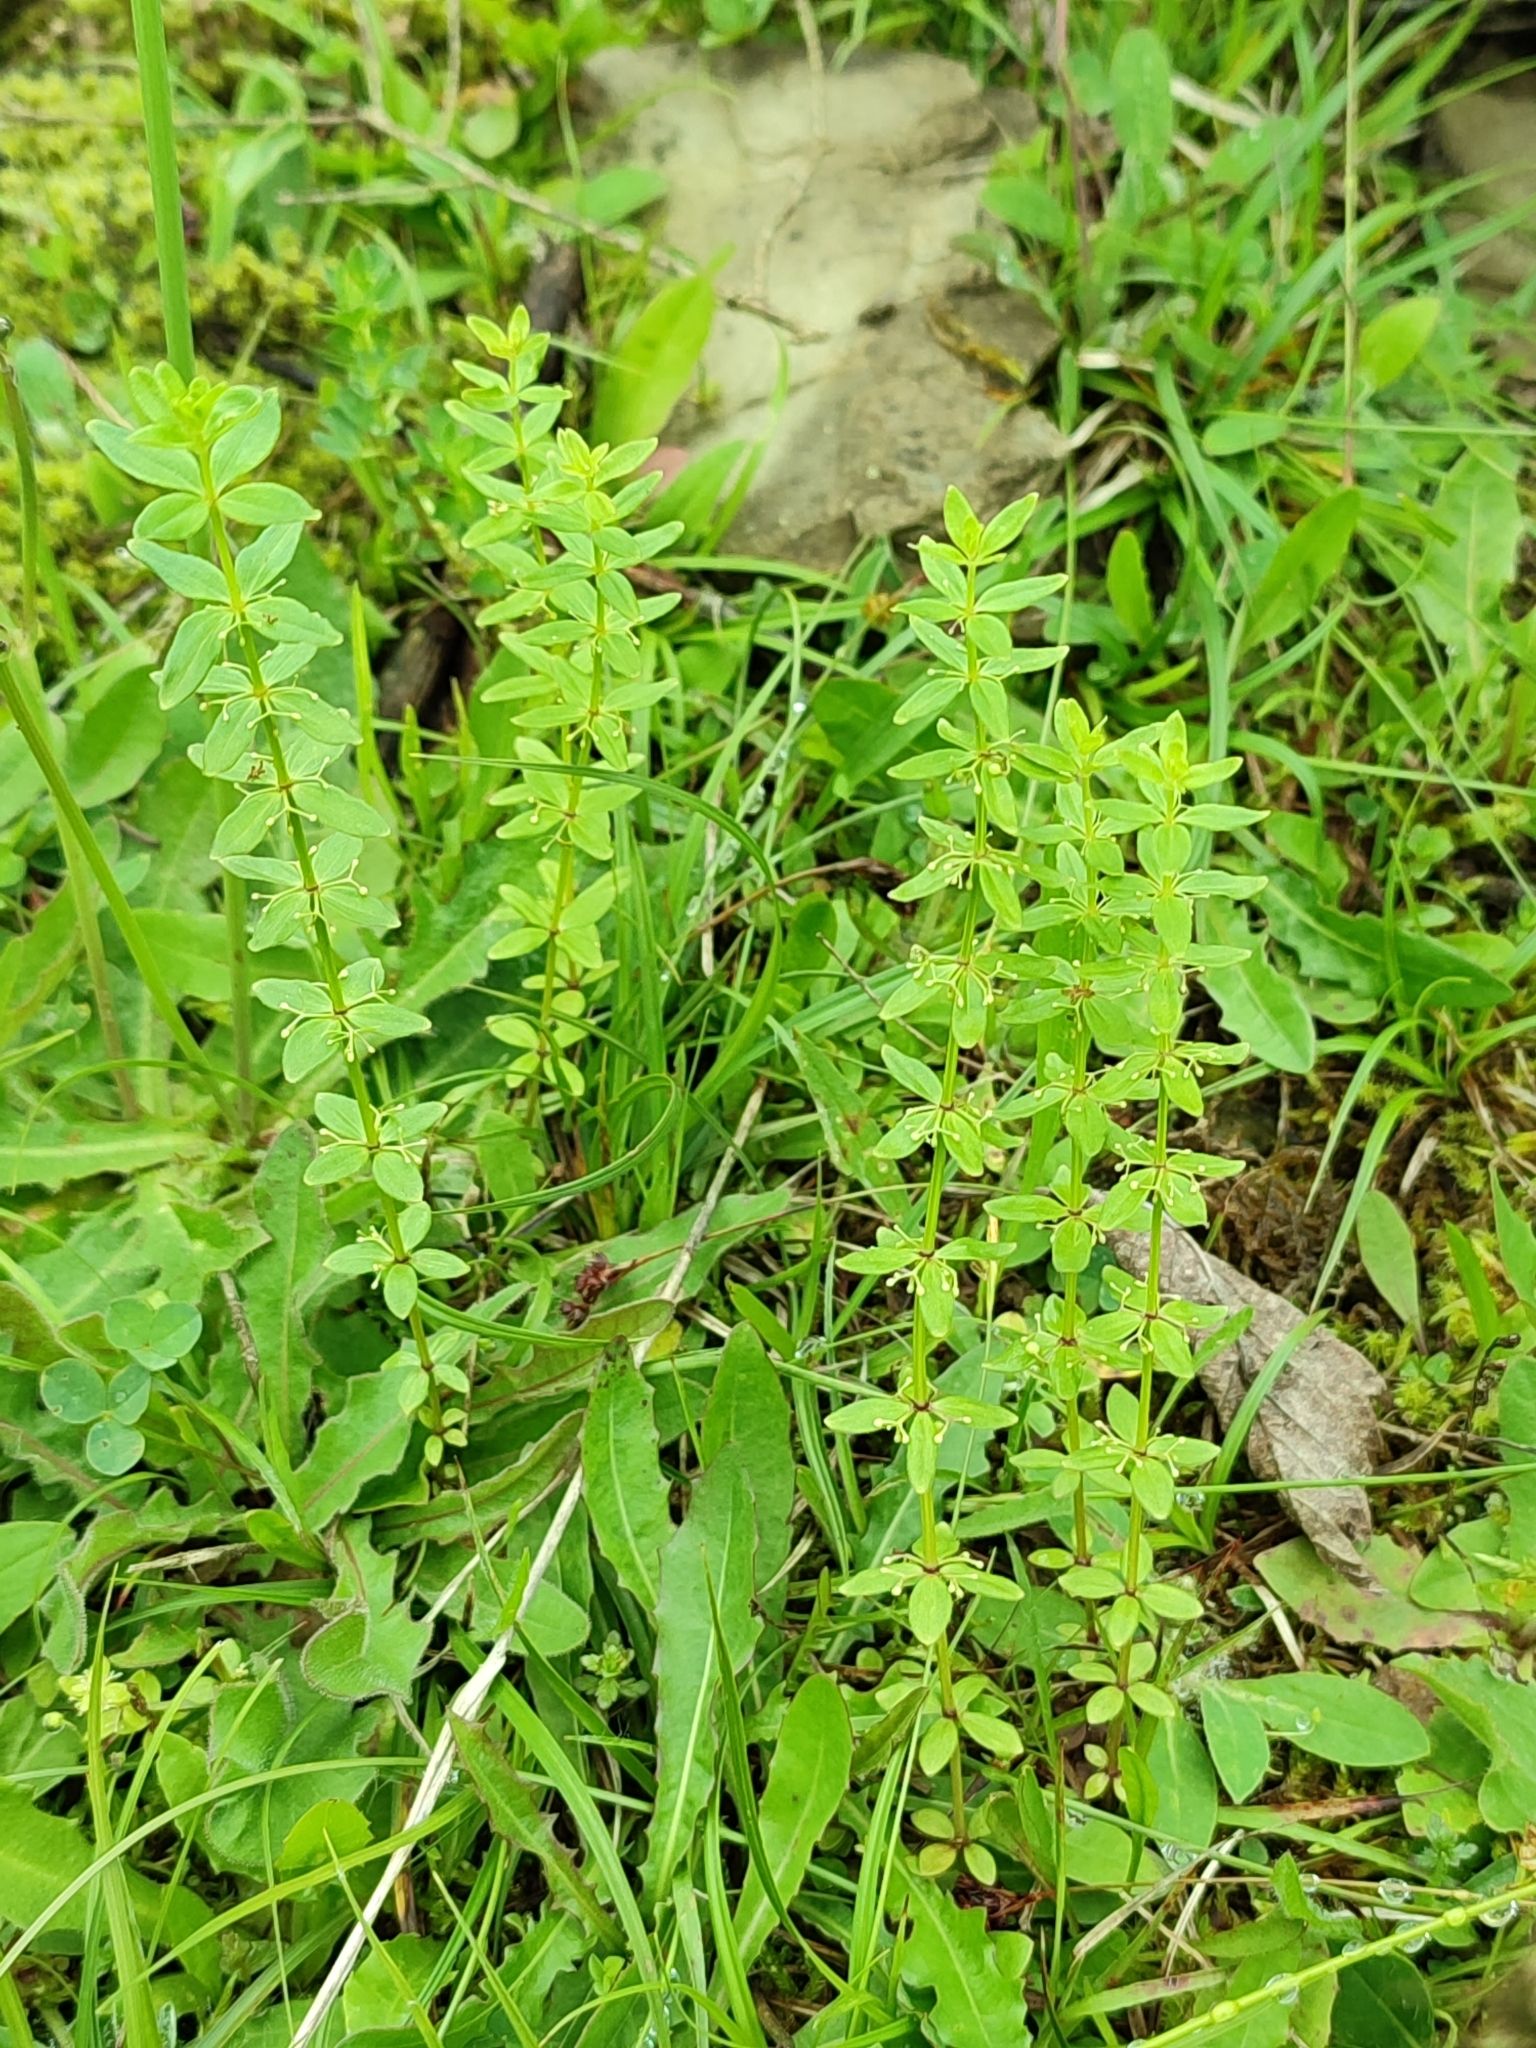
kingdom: Plantae
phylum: Tracheophyta
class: Magnoliopsida
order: Gentianales
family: Rubiaceae
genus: Cruciata
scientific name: Cruciata glabra
